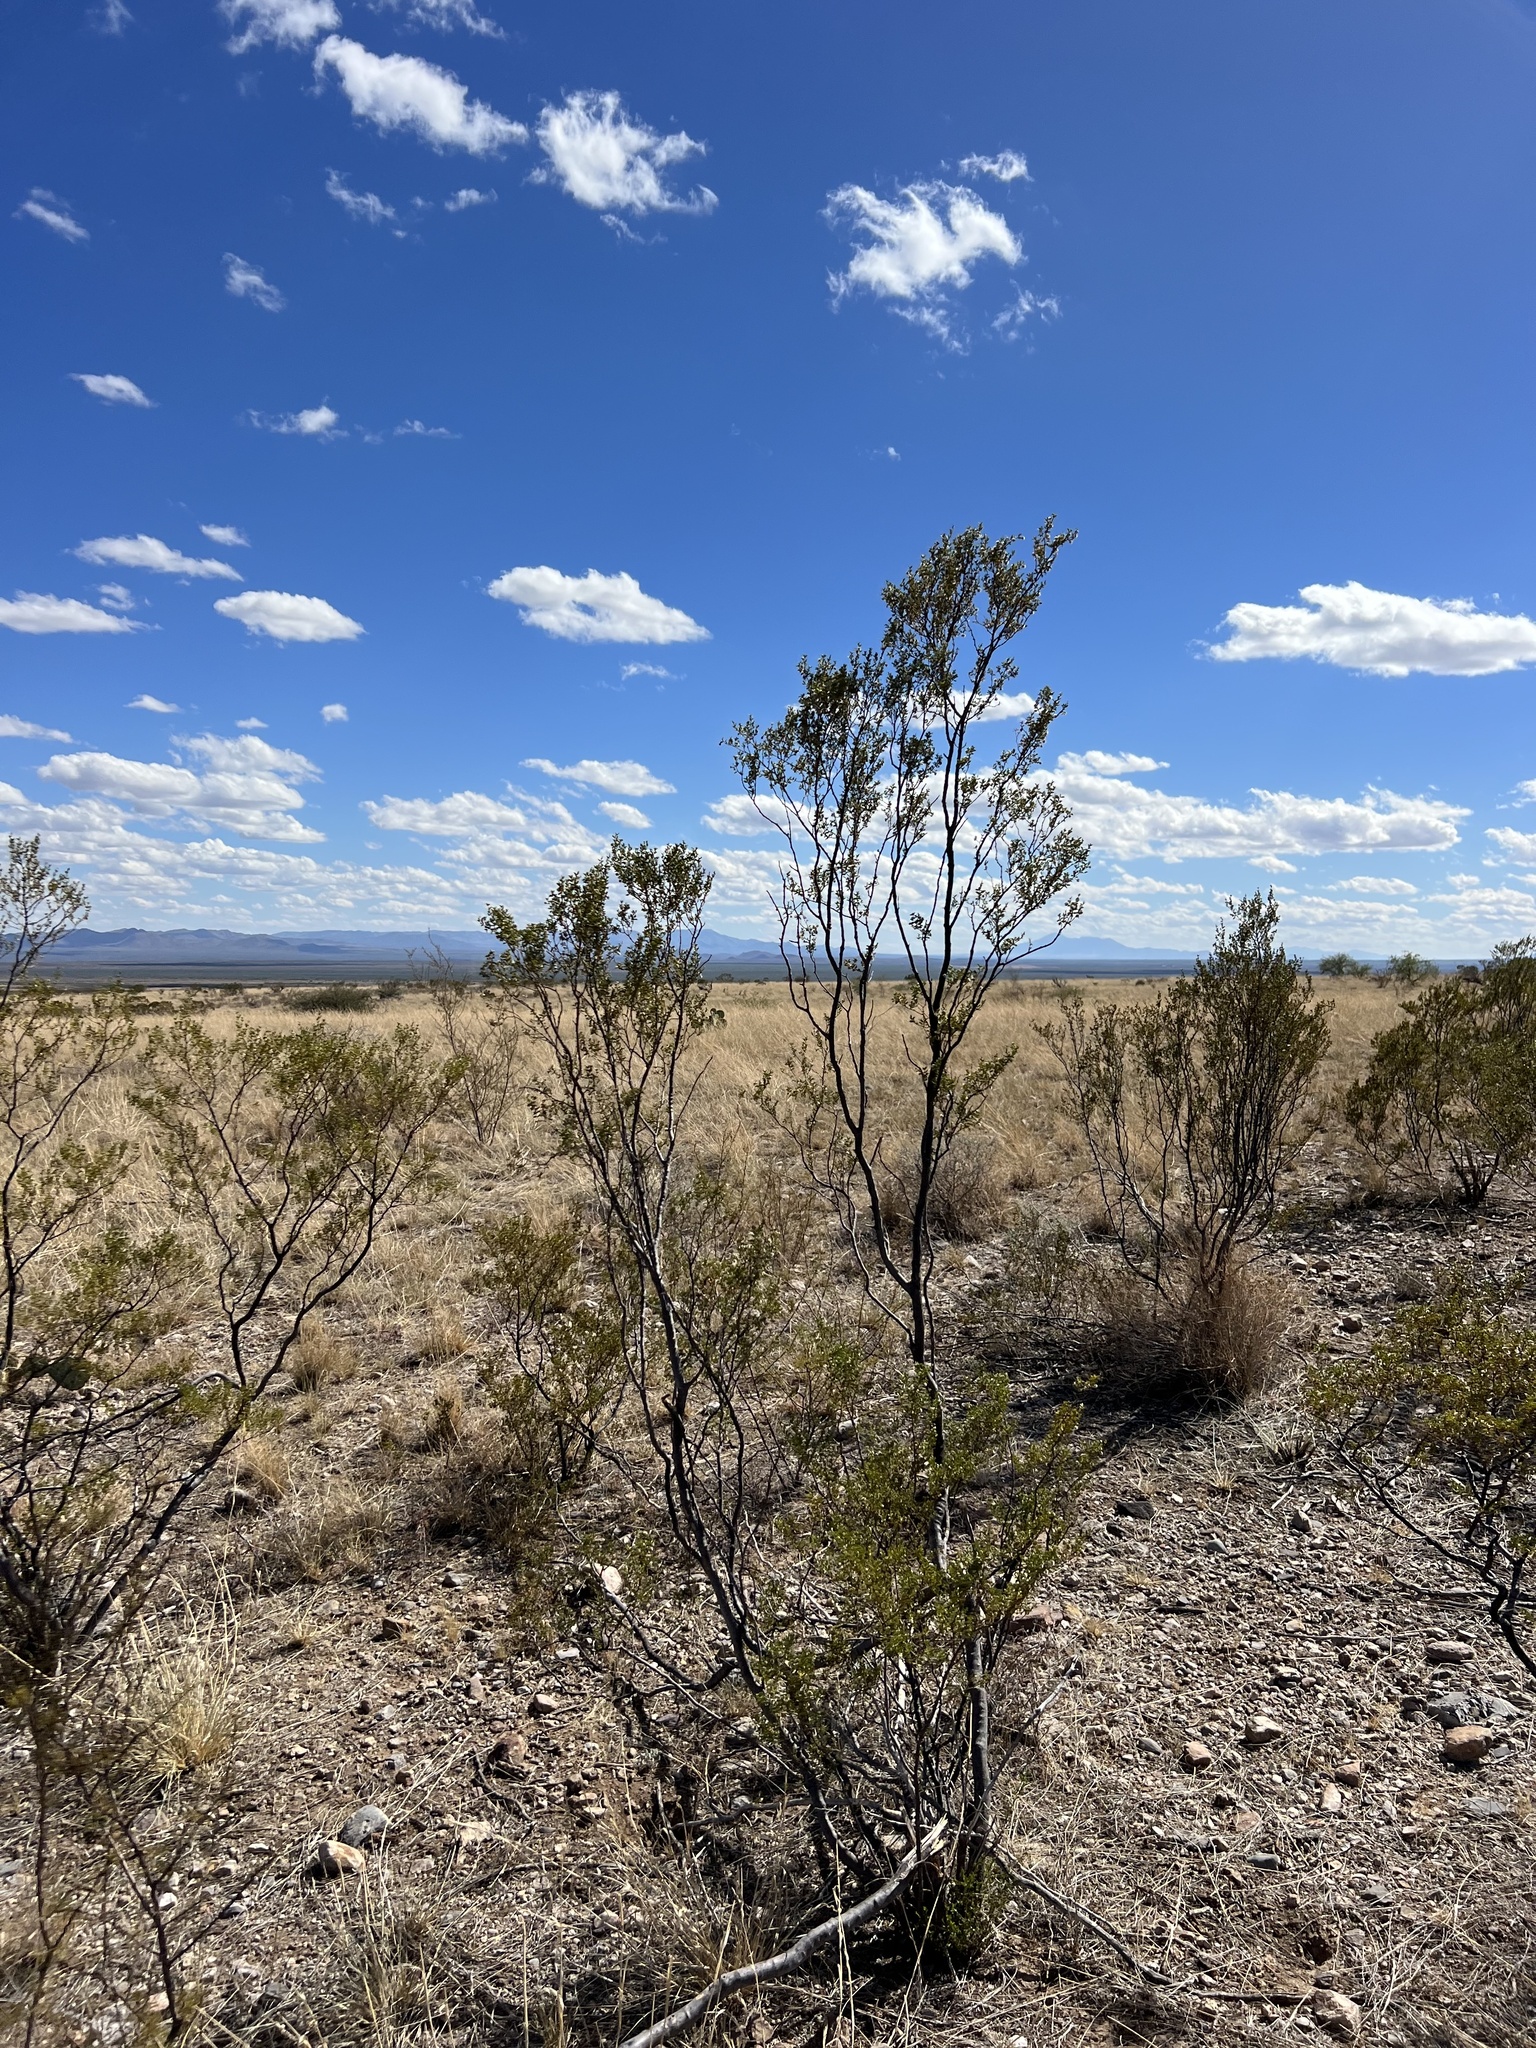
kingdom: Plantae
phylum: Tracheophyta
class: Magnoliopsida
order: Zygophyllales
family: Zygophyllaceae
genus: Larrea
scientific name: Larrea tridentata
